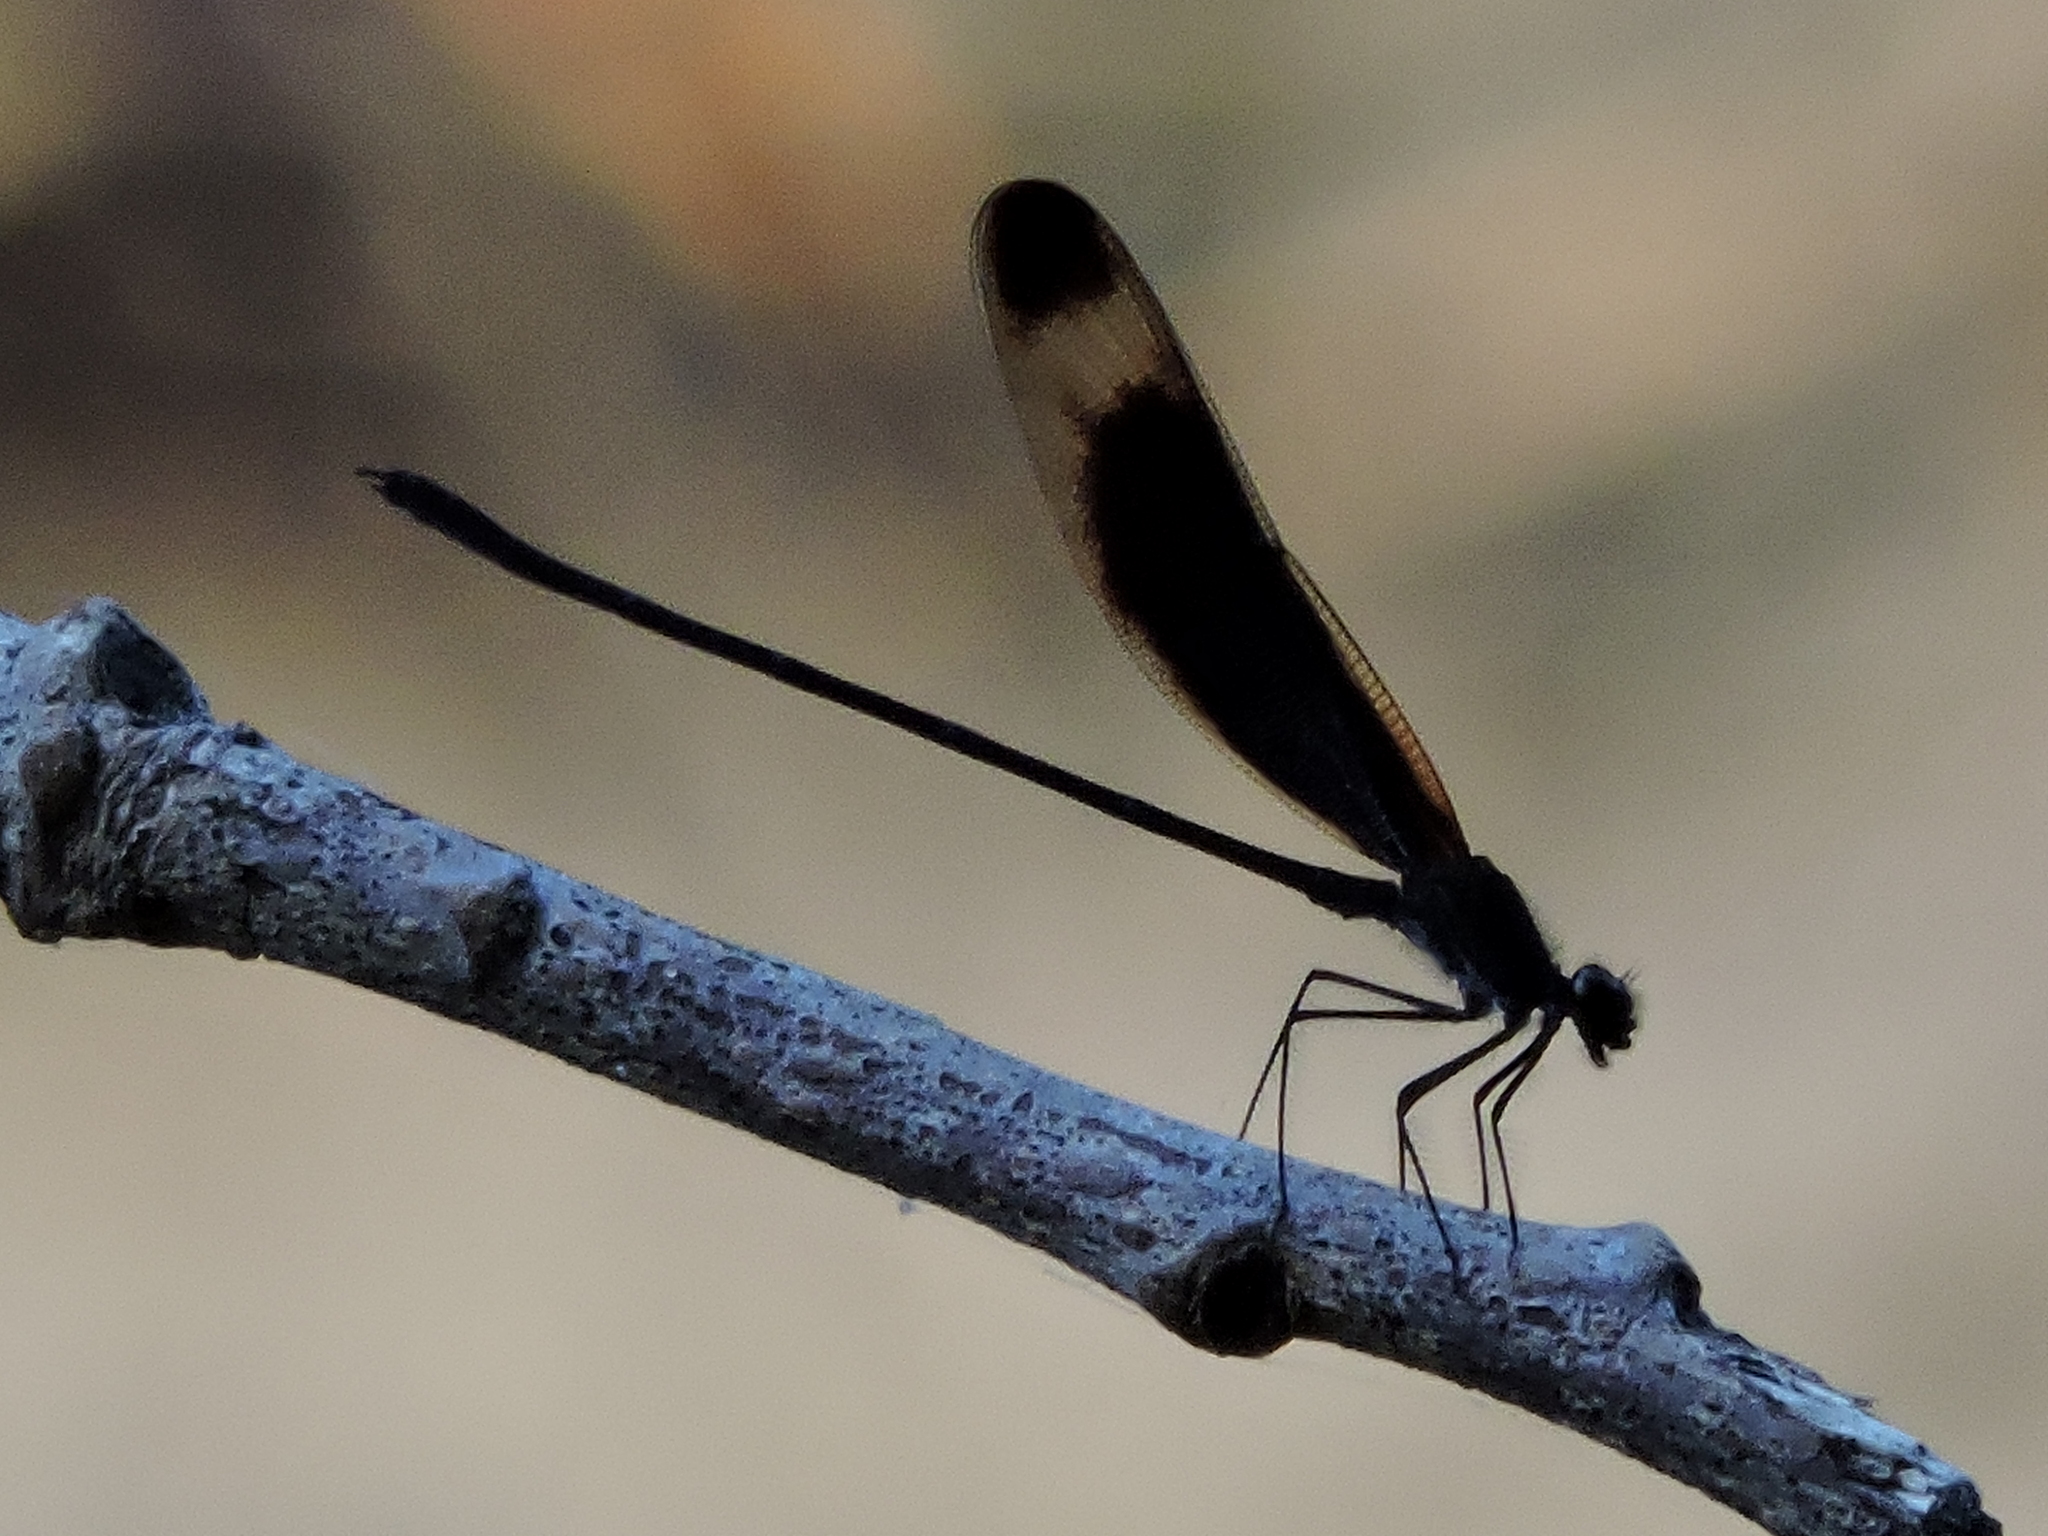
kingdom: Animalia
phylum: Arthropoda
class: Insecta
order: Odonata
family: Calopterygidae
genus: Hetaerina
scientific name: Hetaerina titia
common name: Smoky rubyspot
